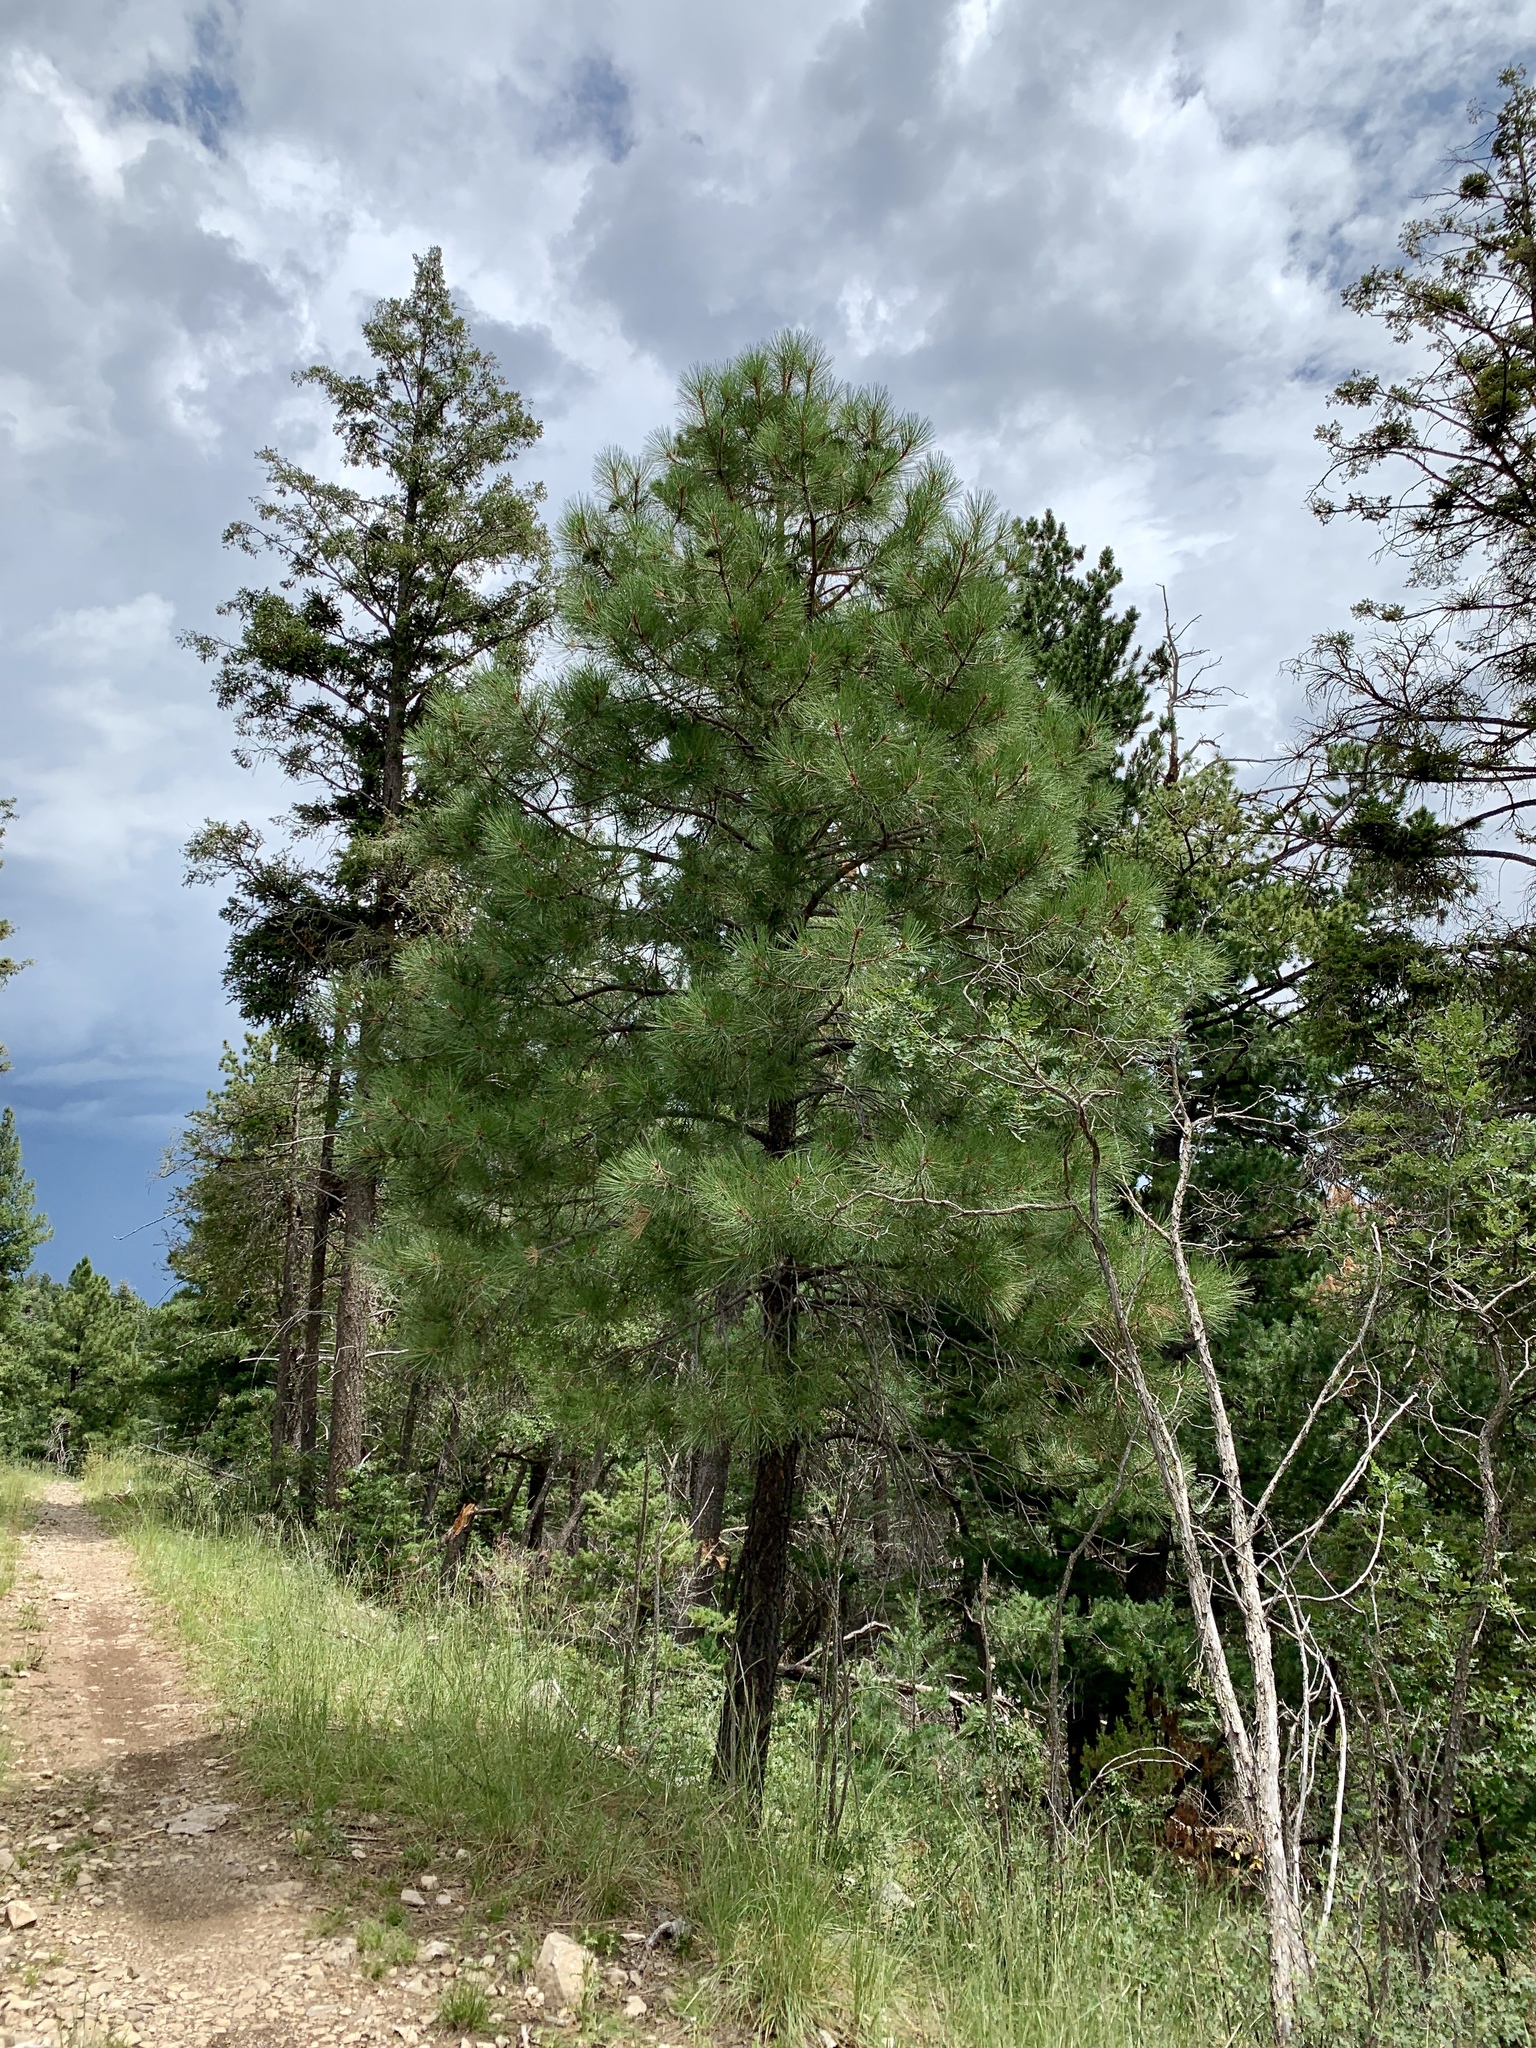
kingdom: Plantae
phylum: Tracheophyta
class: Pinopsida
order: Pinales
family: Pinaceae
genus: Pinus
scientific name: Pinus ponderosa
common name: Western yellow-pine
